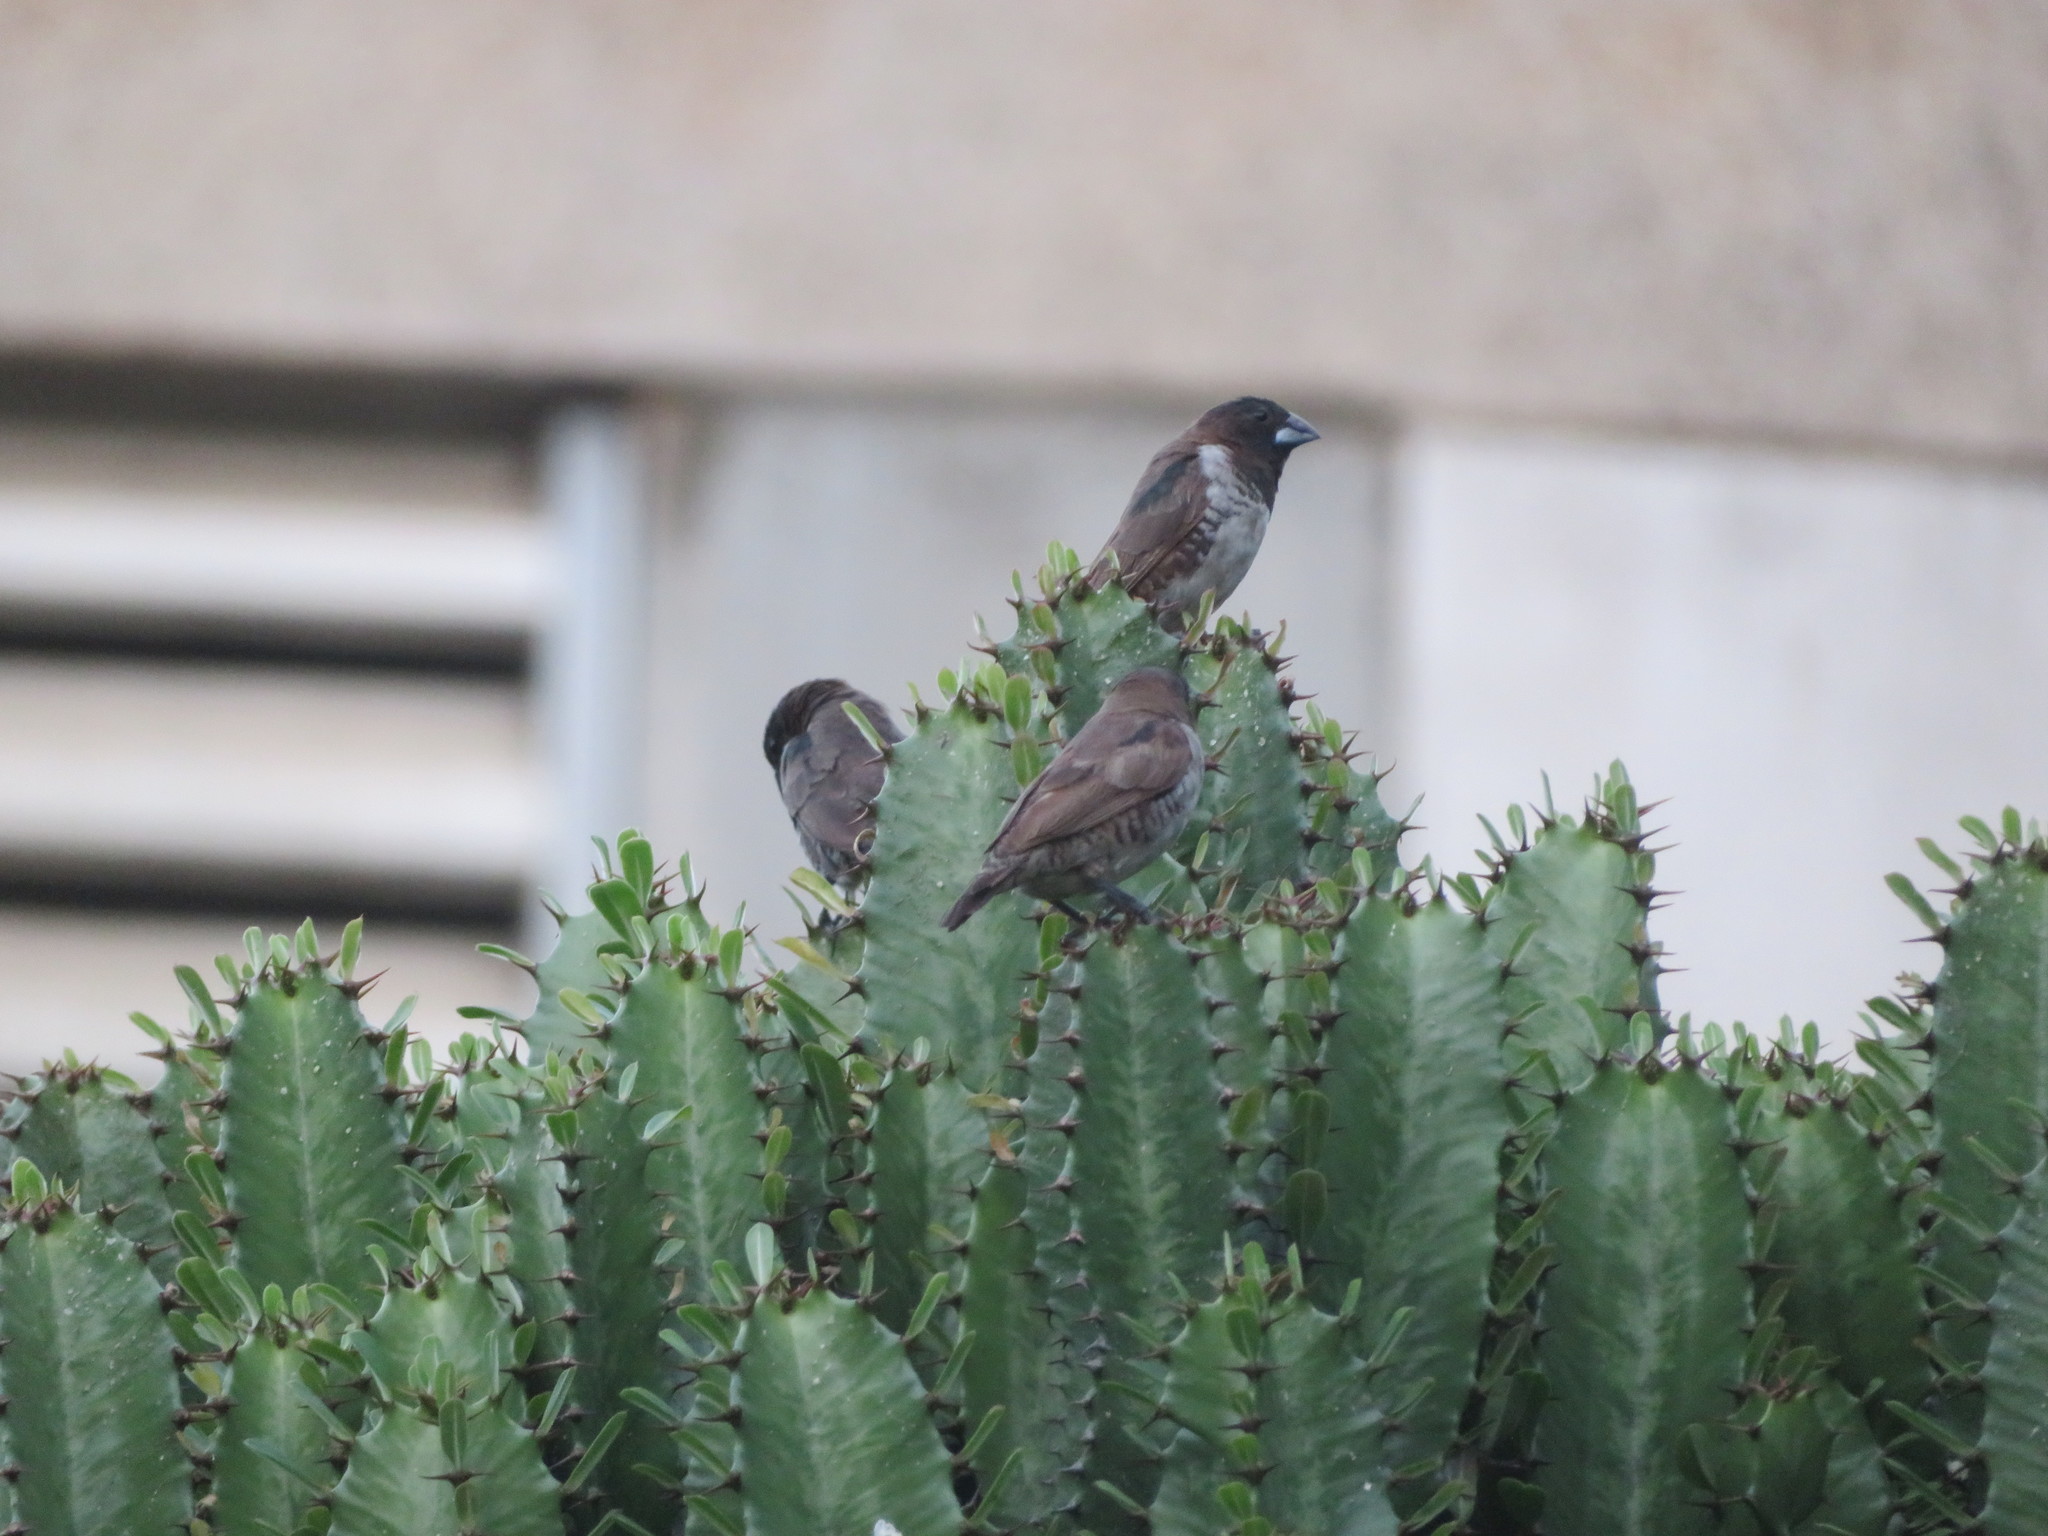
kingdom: Animalia
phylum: Chordata
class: Aves
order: Passeriformes
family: Estrildidae
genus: Lonchura
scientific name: Lonchura cucullata
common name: Bronze mannikin
